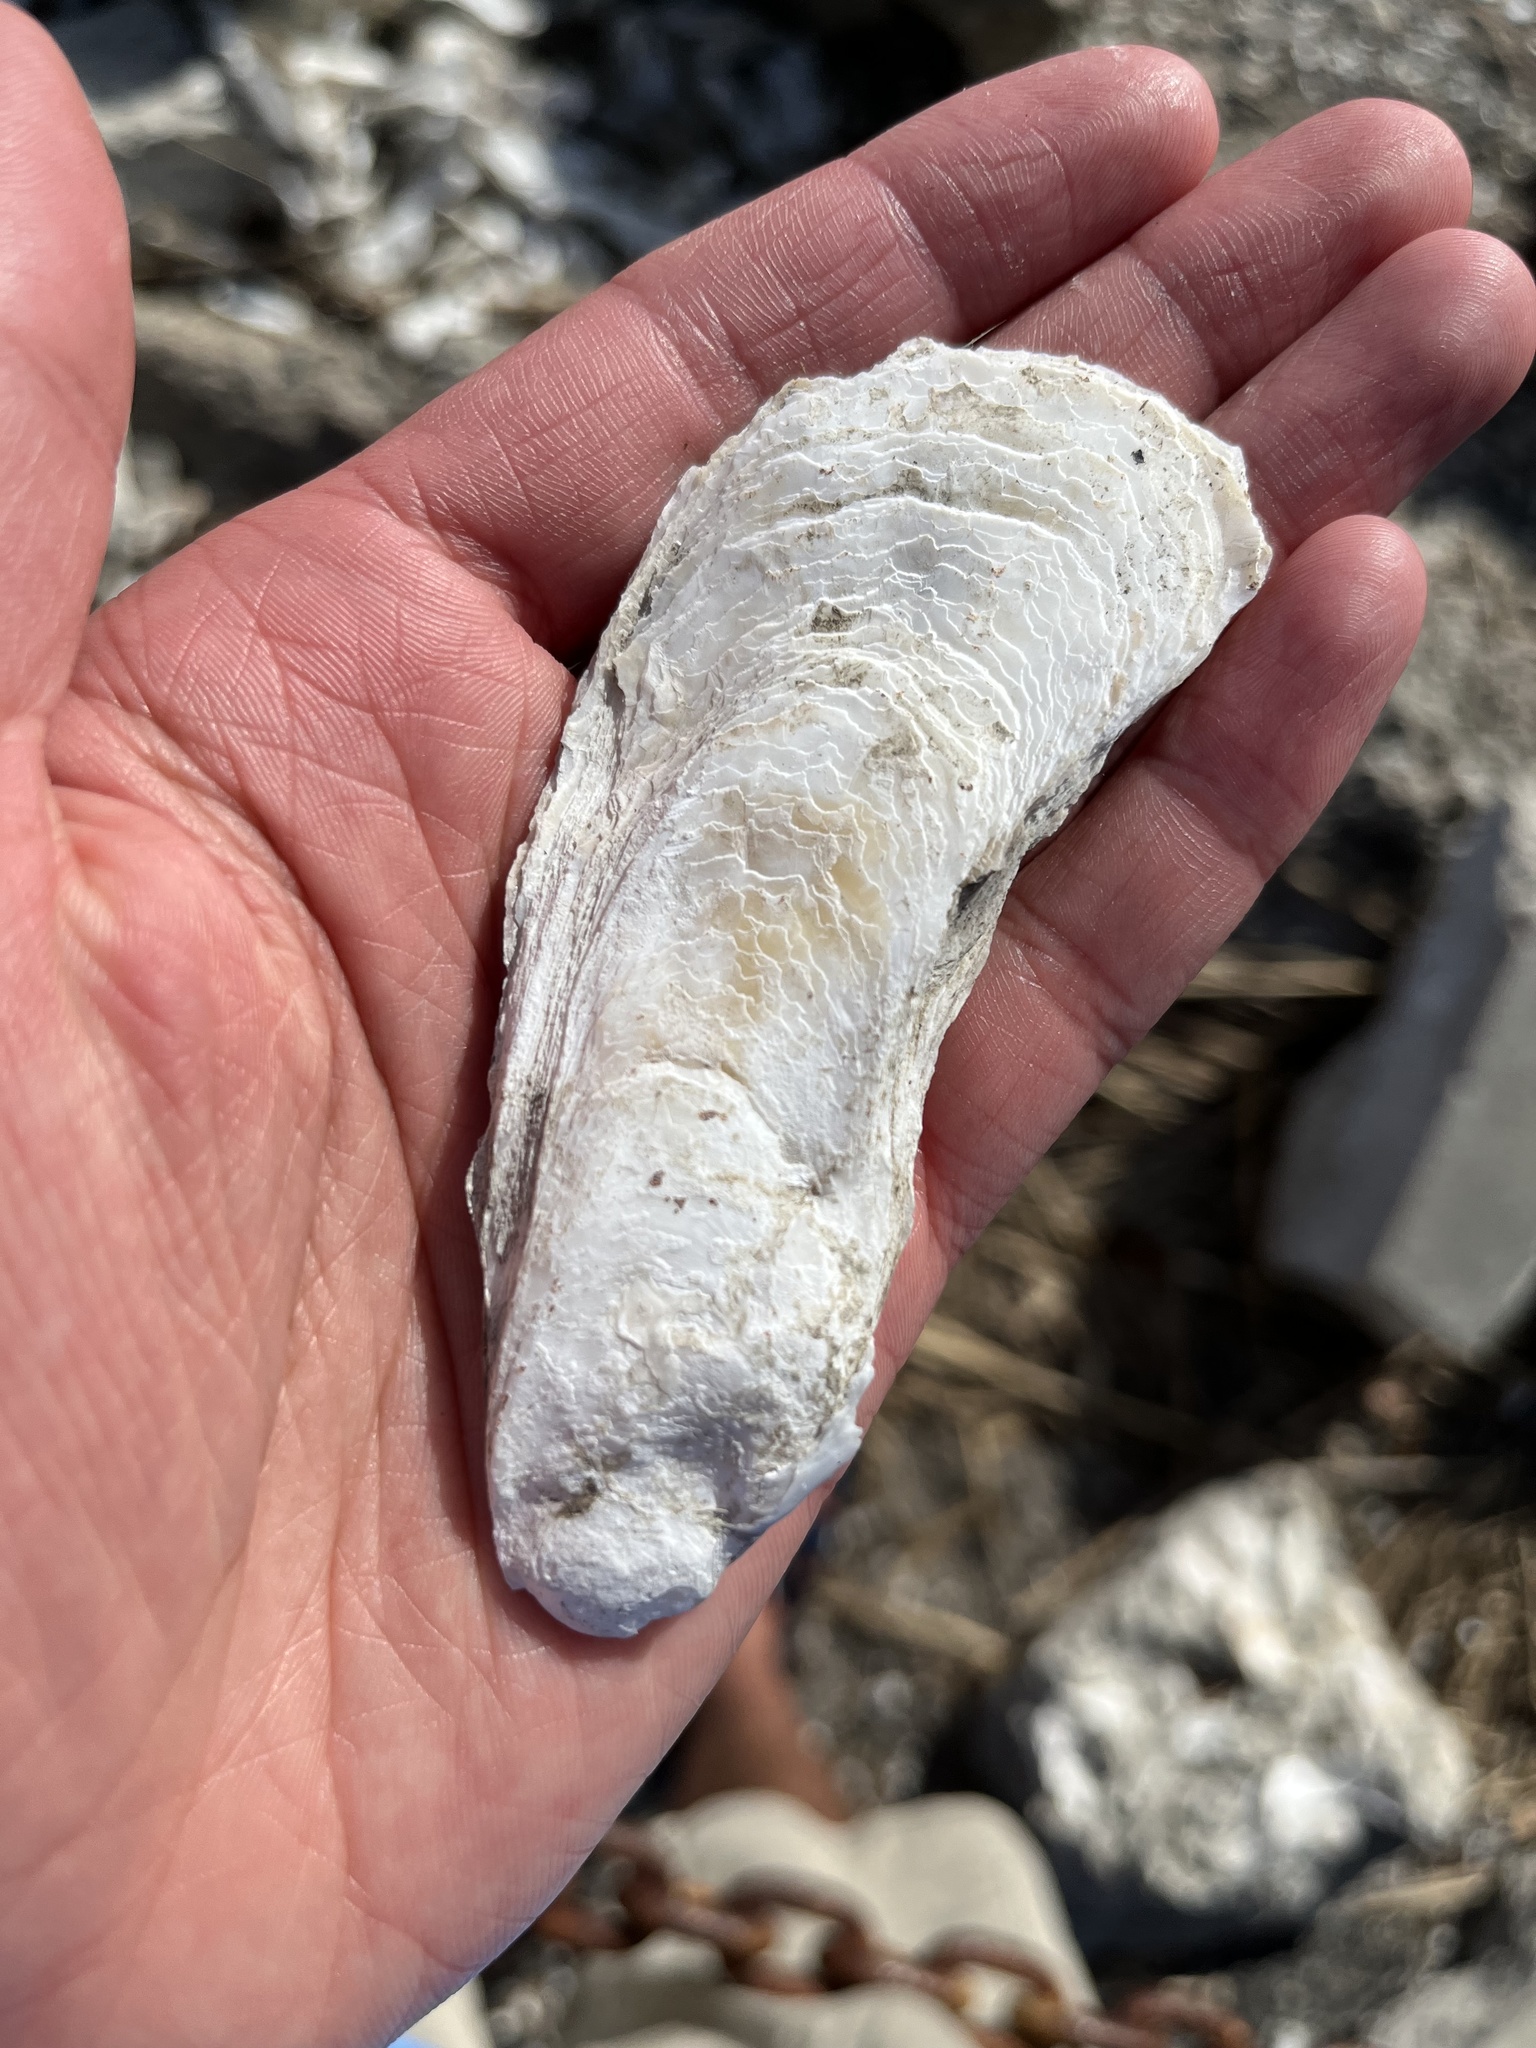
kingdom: Animalia
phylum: Mollusca
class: Bivalvia
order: Ostreida
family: Ostreidae
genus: Crassostrea
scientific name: Crassostrea virginica
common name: American oyster
